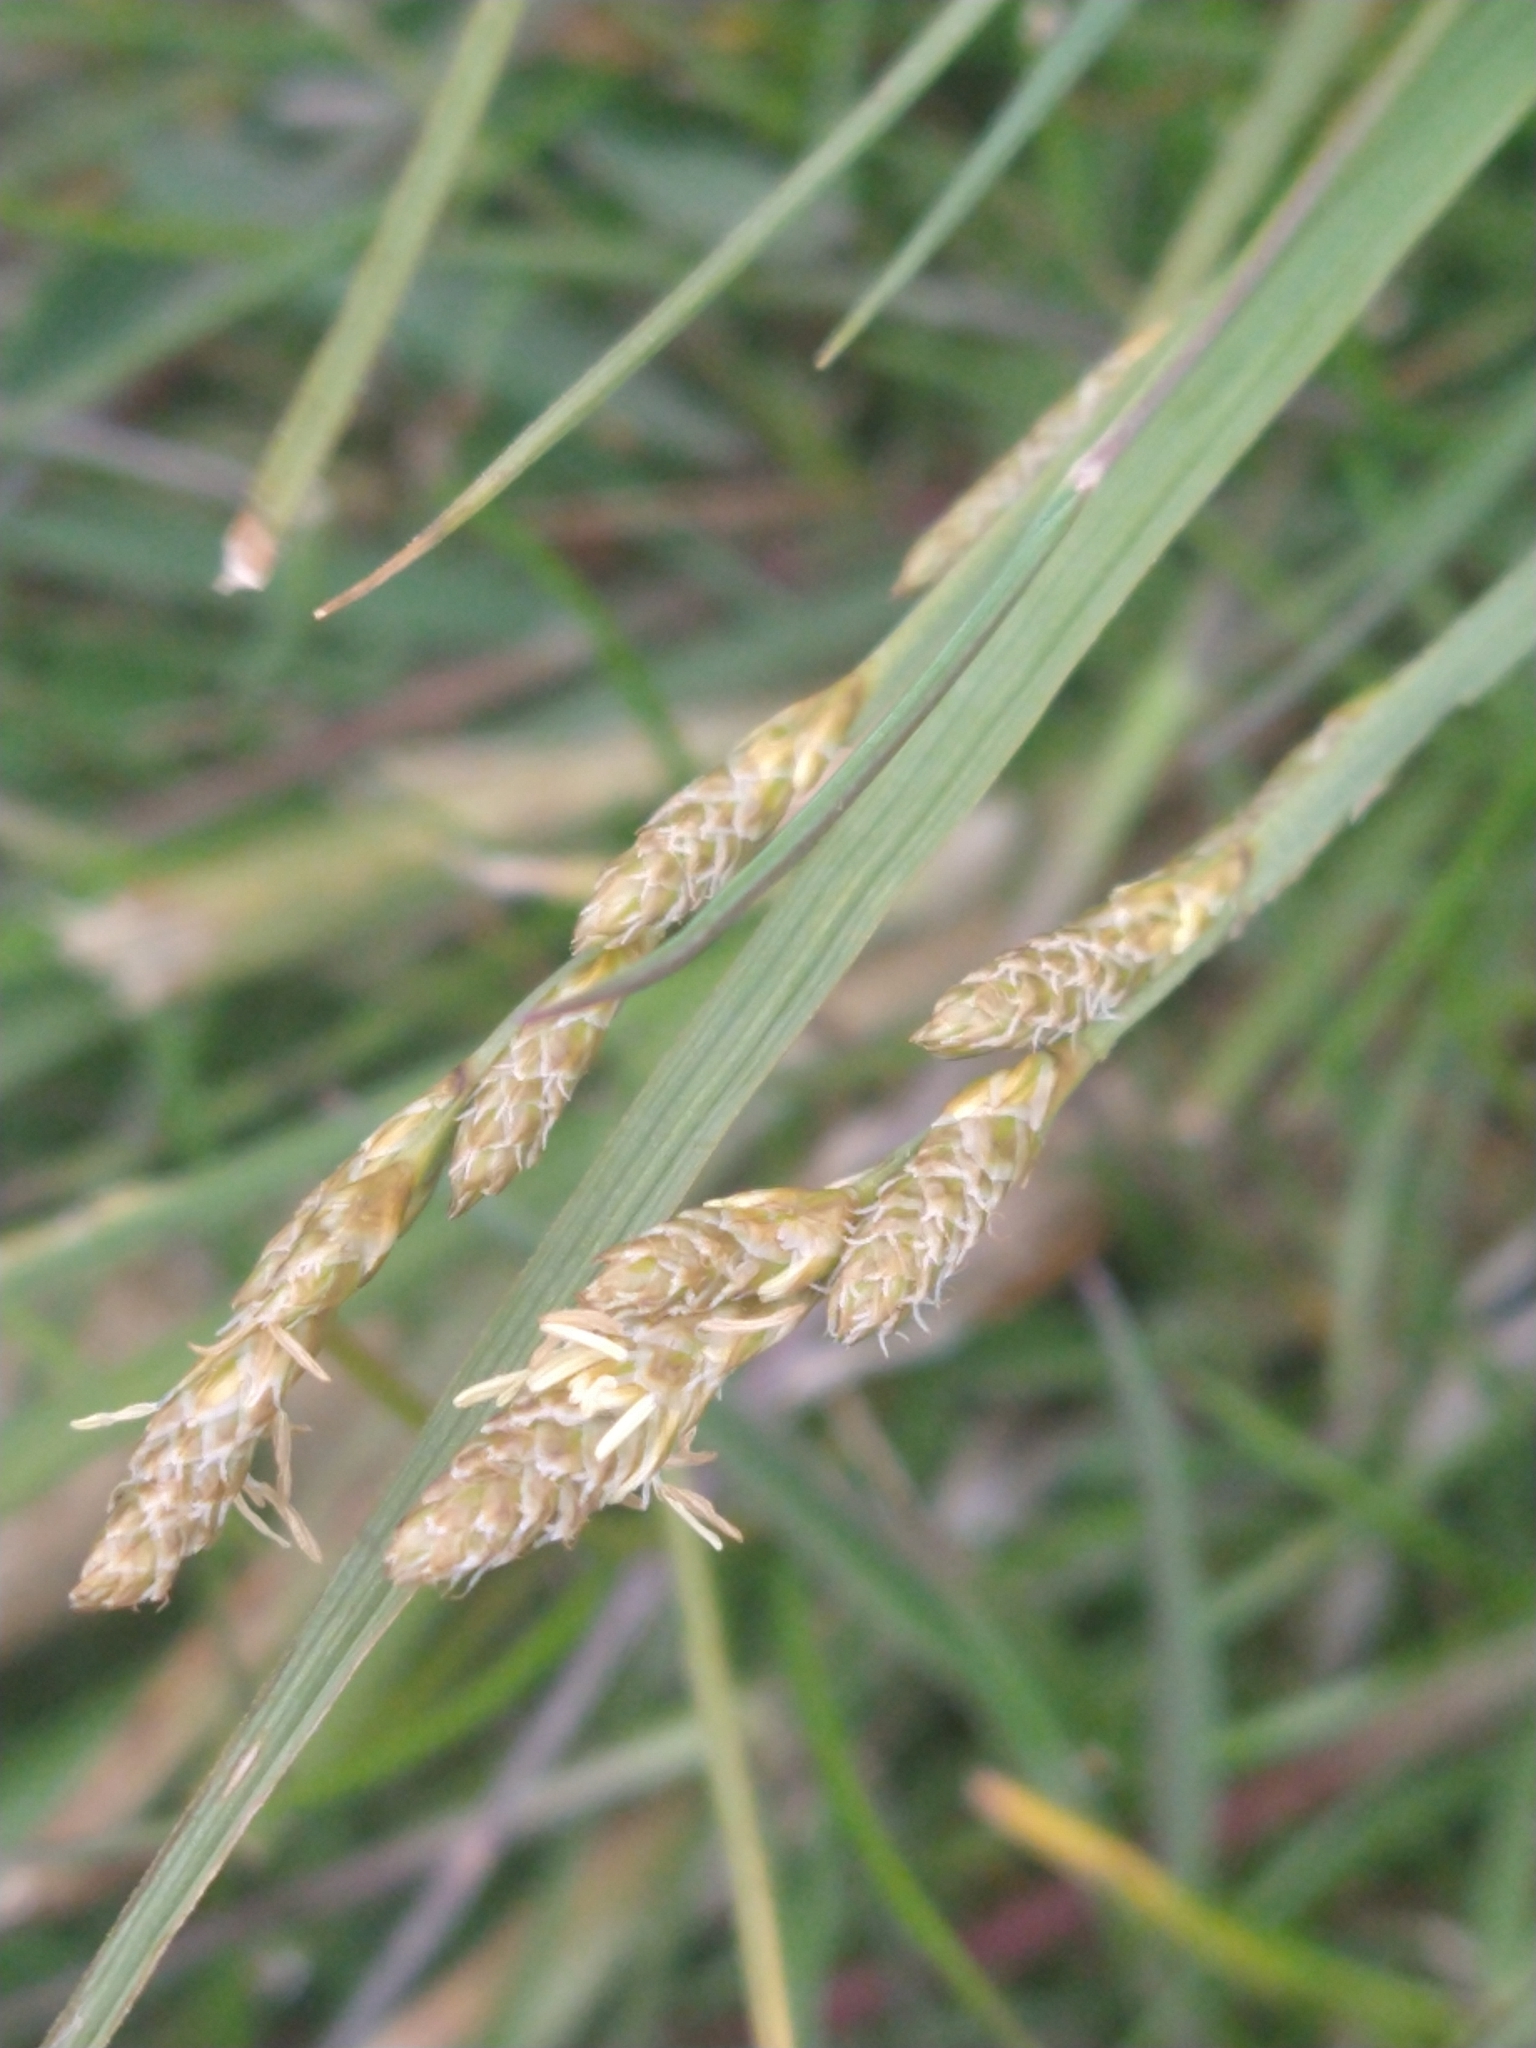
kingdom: Plantae
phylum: Tracheophyta
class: Liliopsida
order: Poales
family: Cyperaceae
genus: Carex
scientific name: Carex canescens
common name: White sedge
